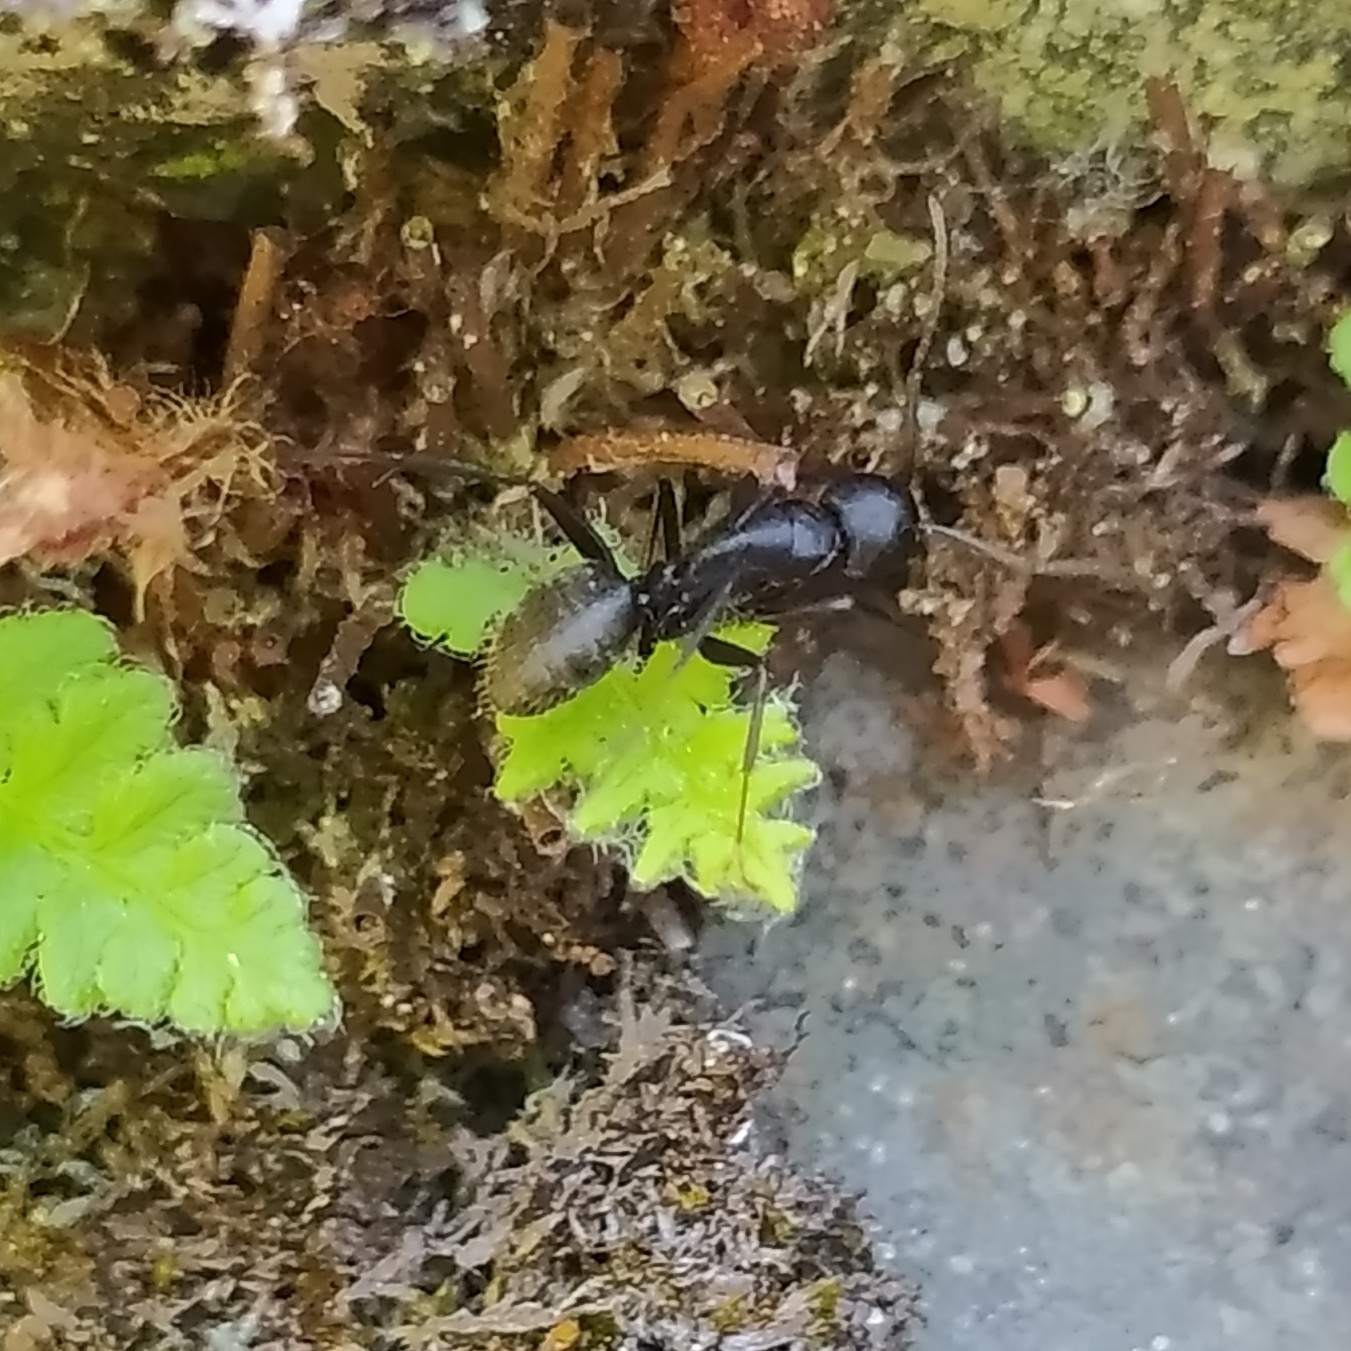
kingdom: Animalia
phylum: Arthropoda
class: Insecta
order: Hymenoptera
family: Formicidae
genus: Camponotus
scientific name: Camponotus vagus
